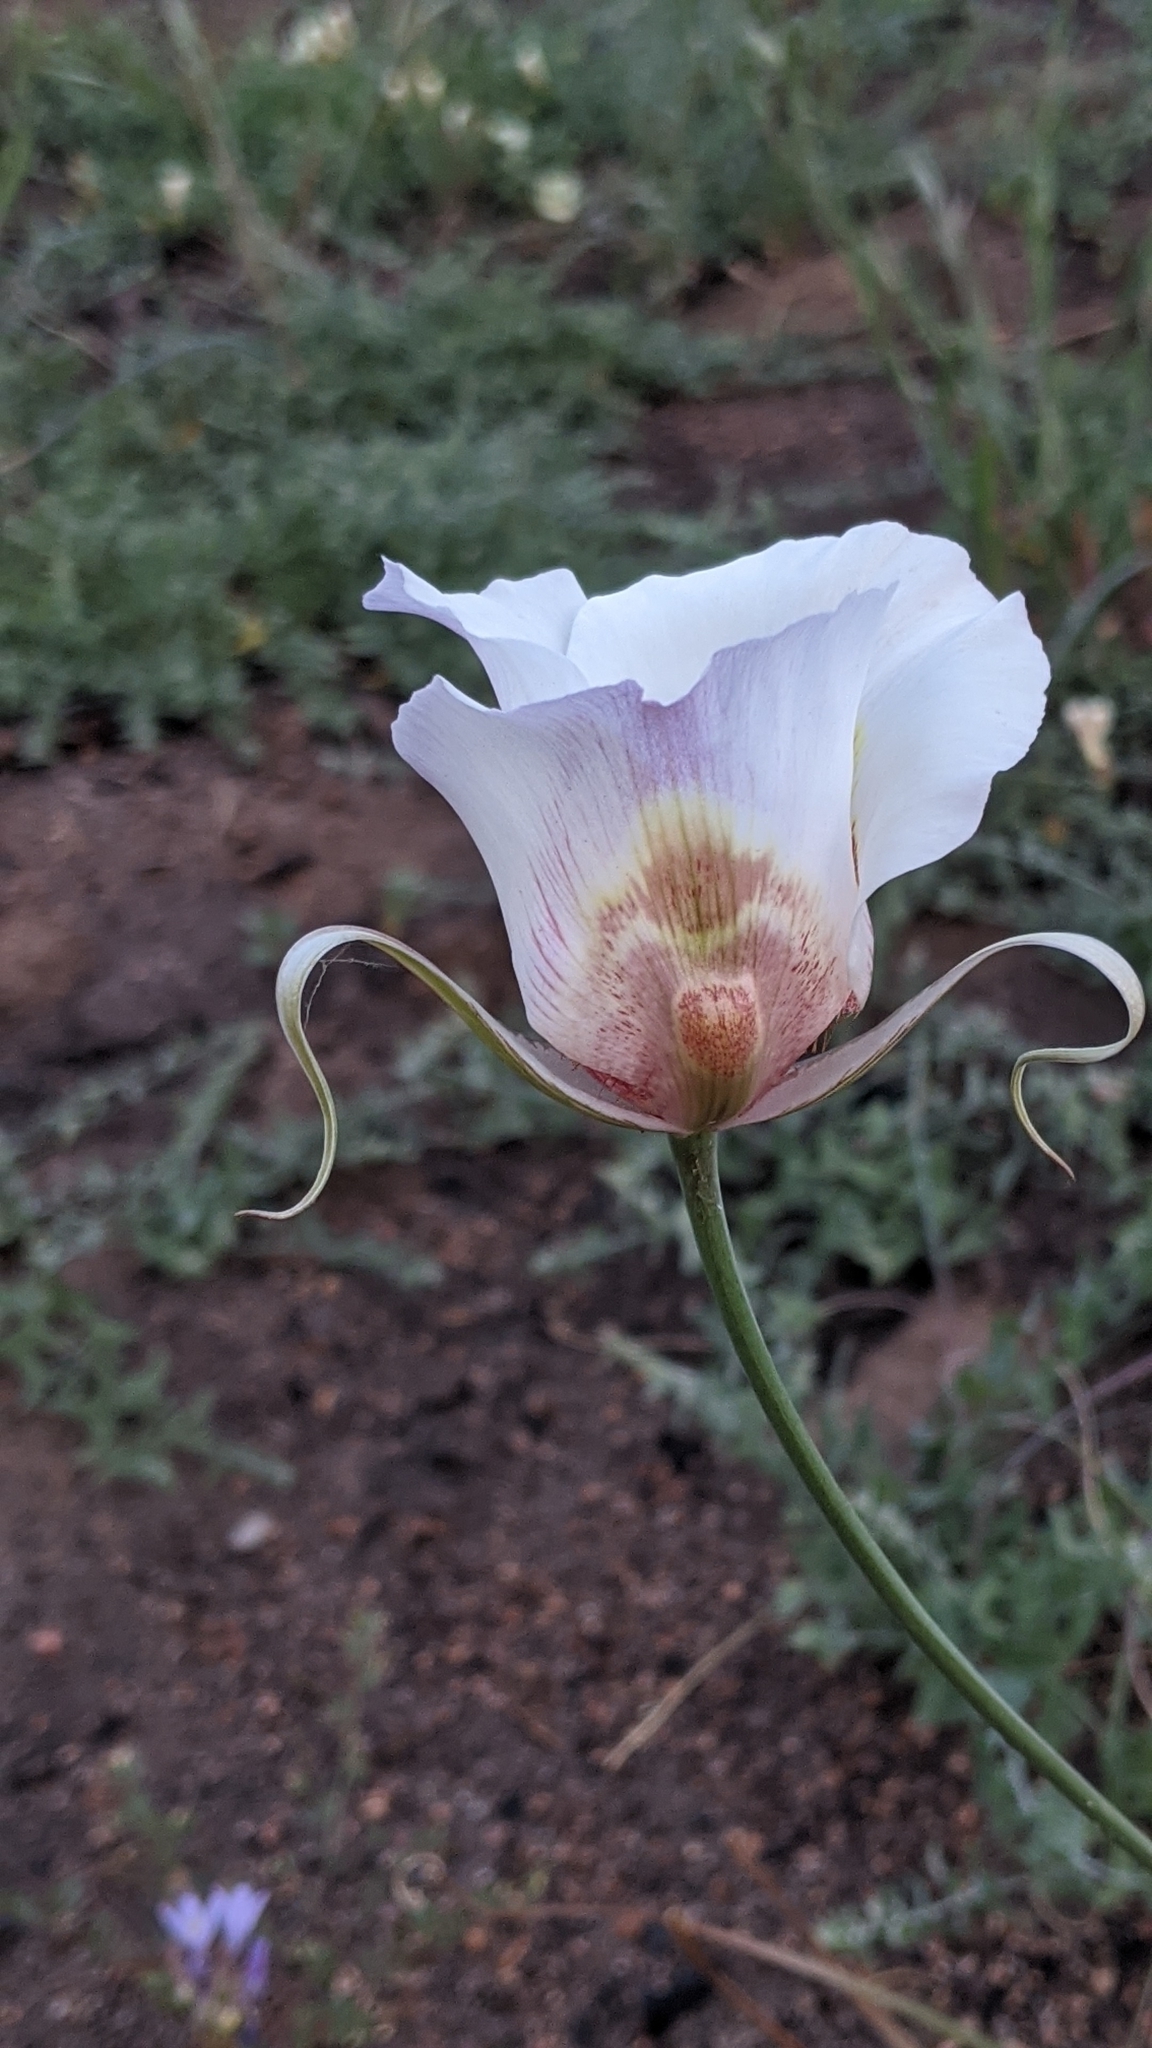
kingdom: Plantae
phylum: Tracheophyta
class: Liliopsida
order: Liliales
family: Liliaceae
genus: Calochortus
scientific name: Calochortus venustus
